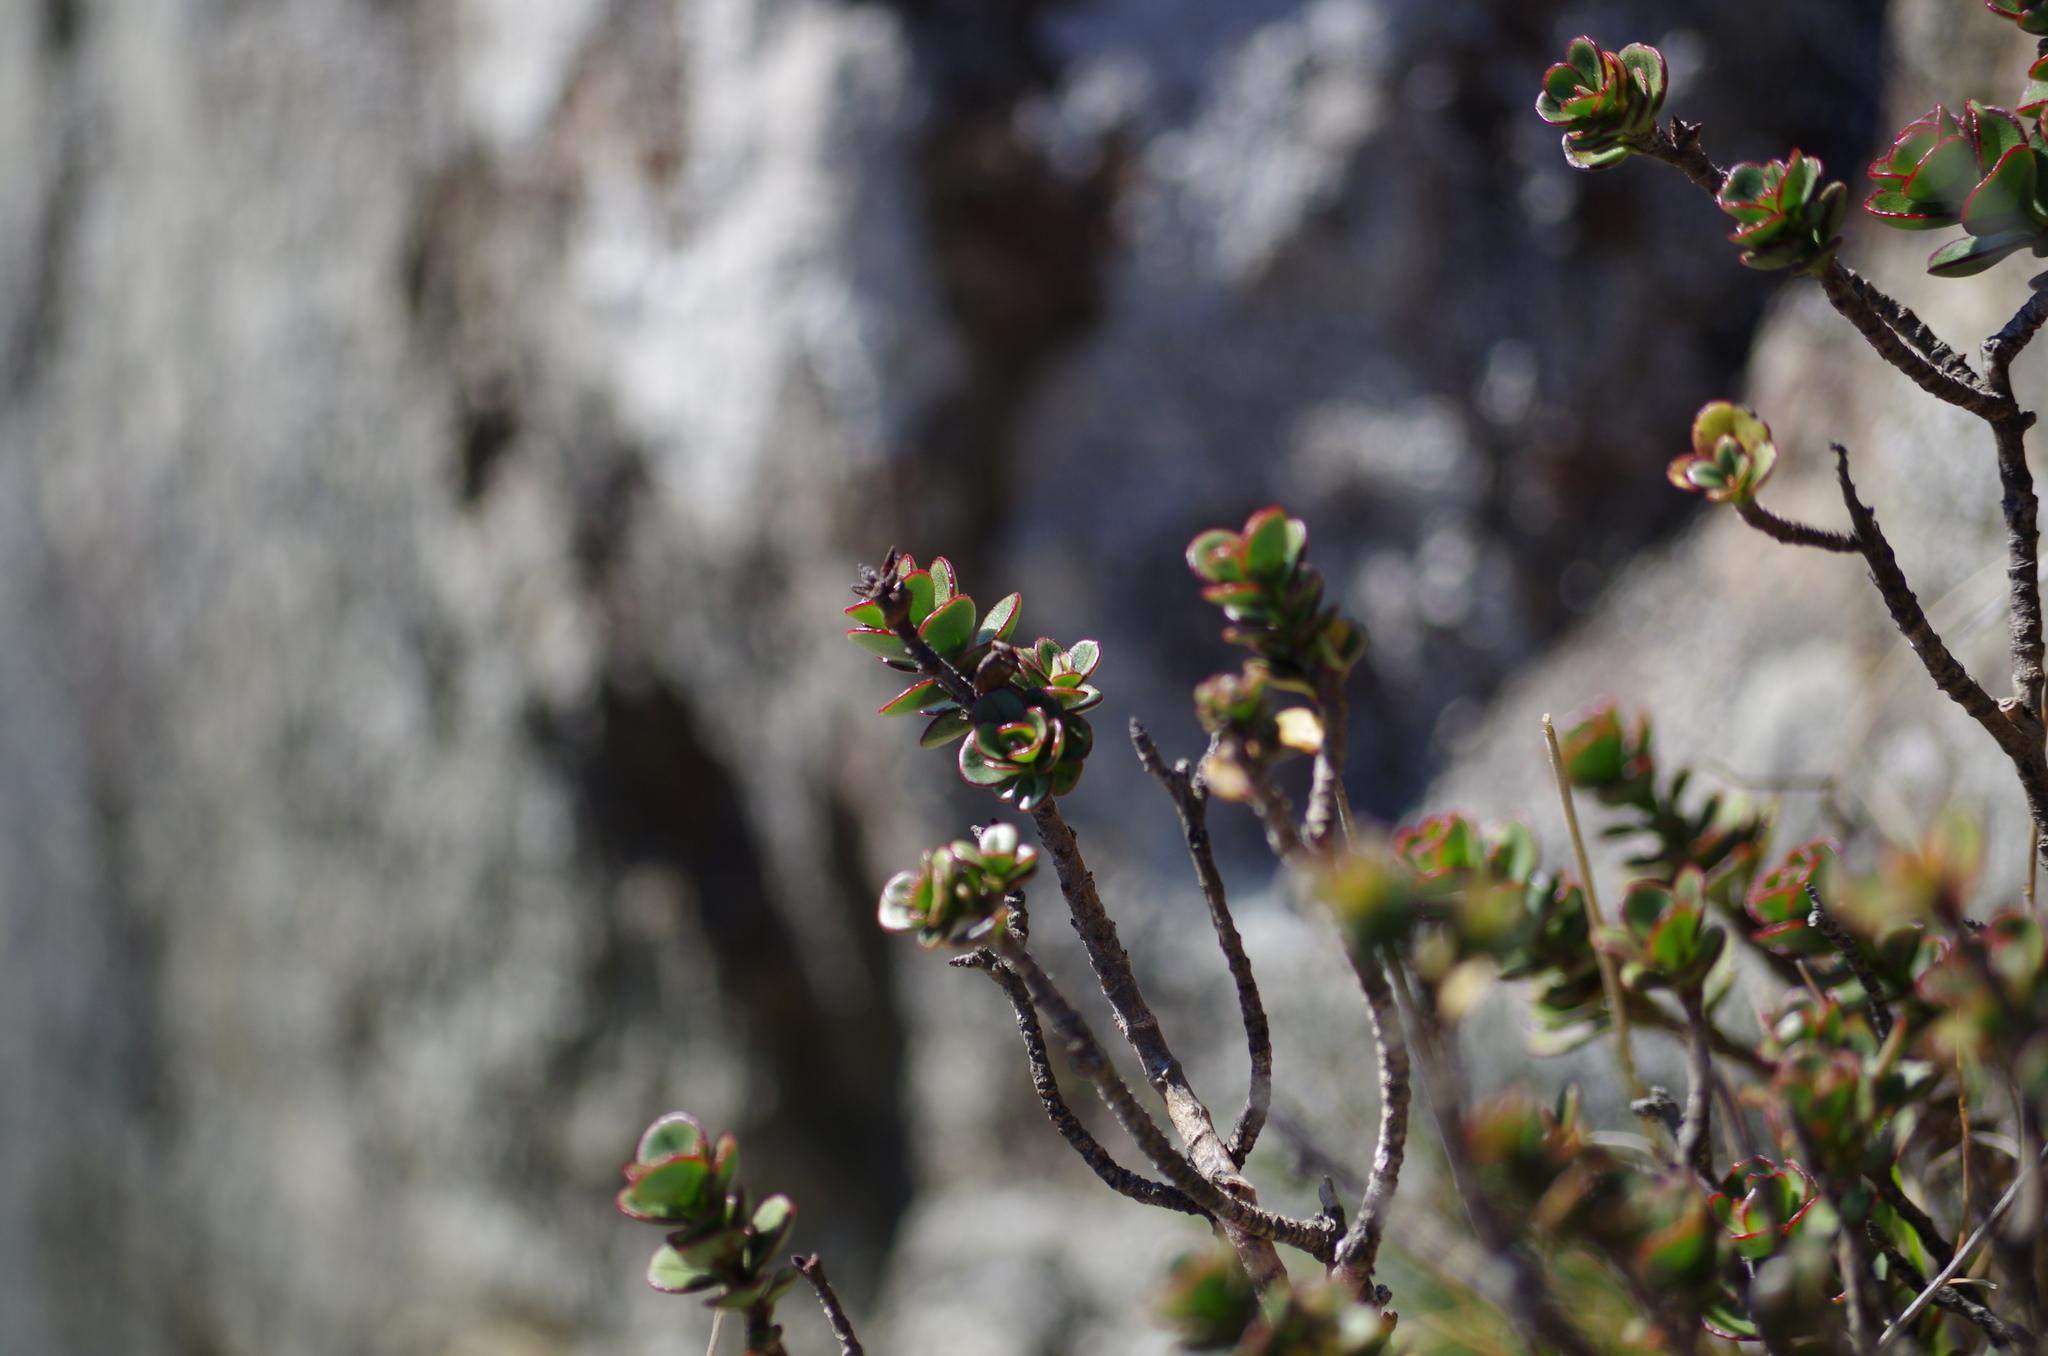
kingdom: Plantae
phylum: Tracheophyta
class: Magnoliopsida
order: Lamiales
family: Plantaginaceae
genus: Veronica
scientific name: Veronica lavaudiana
